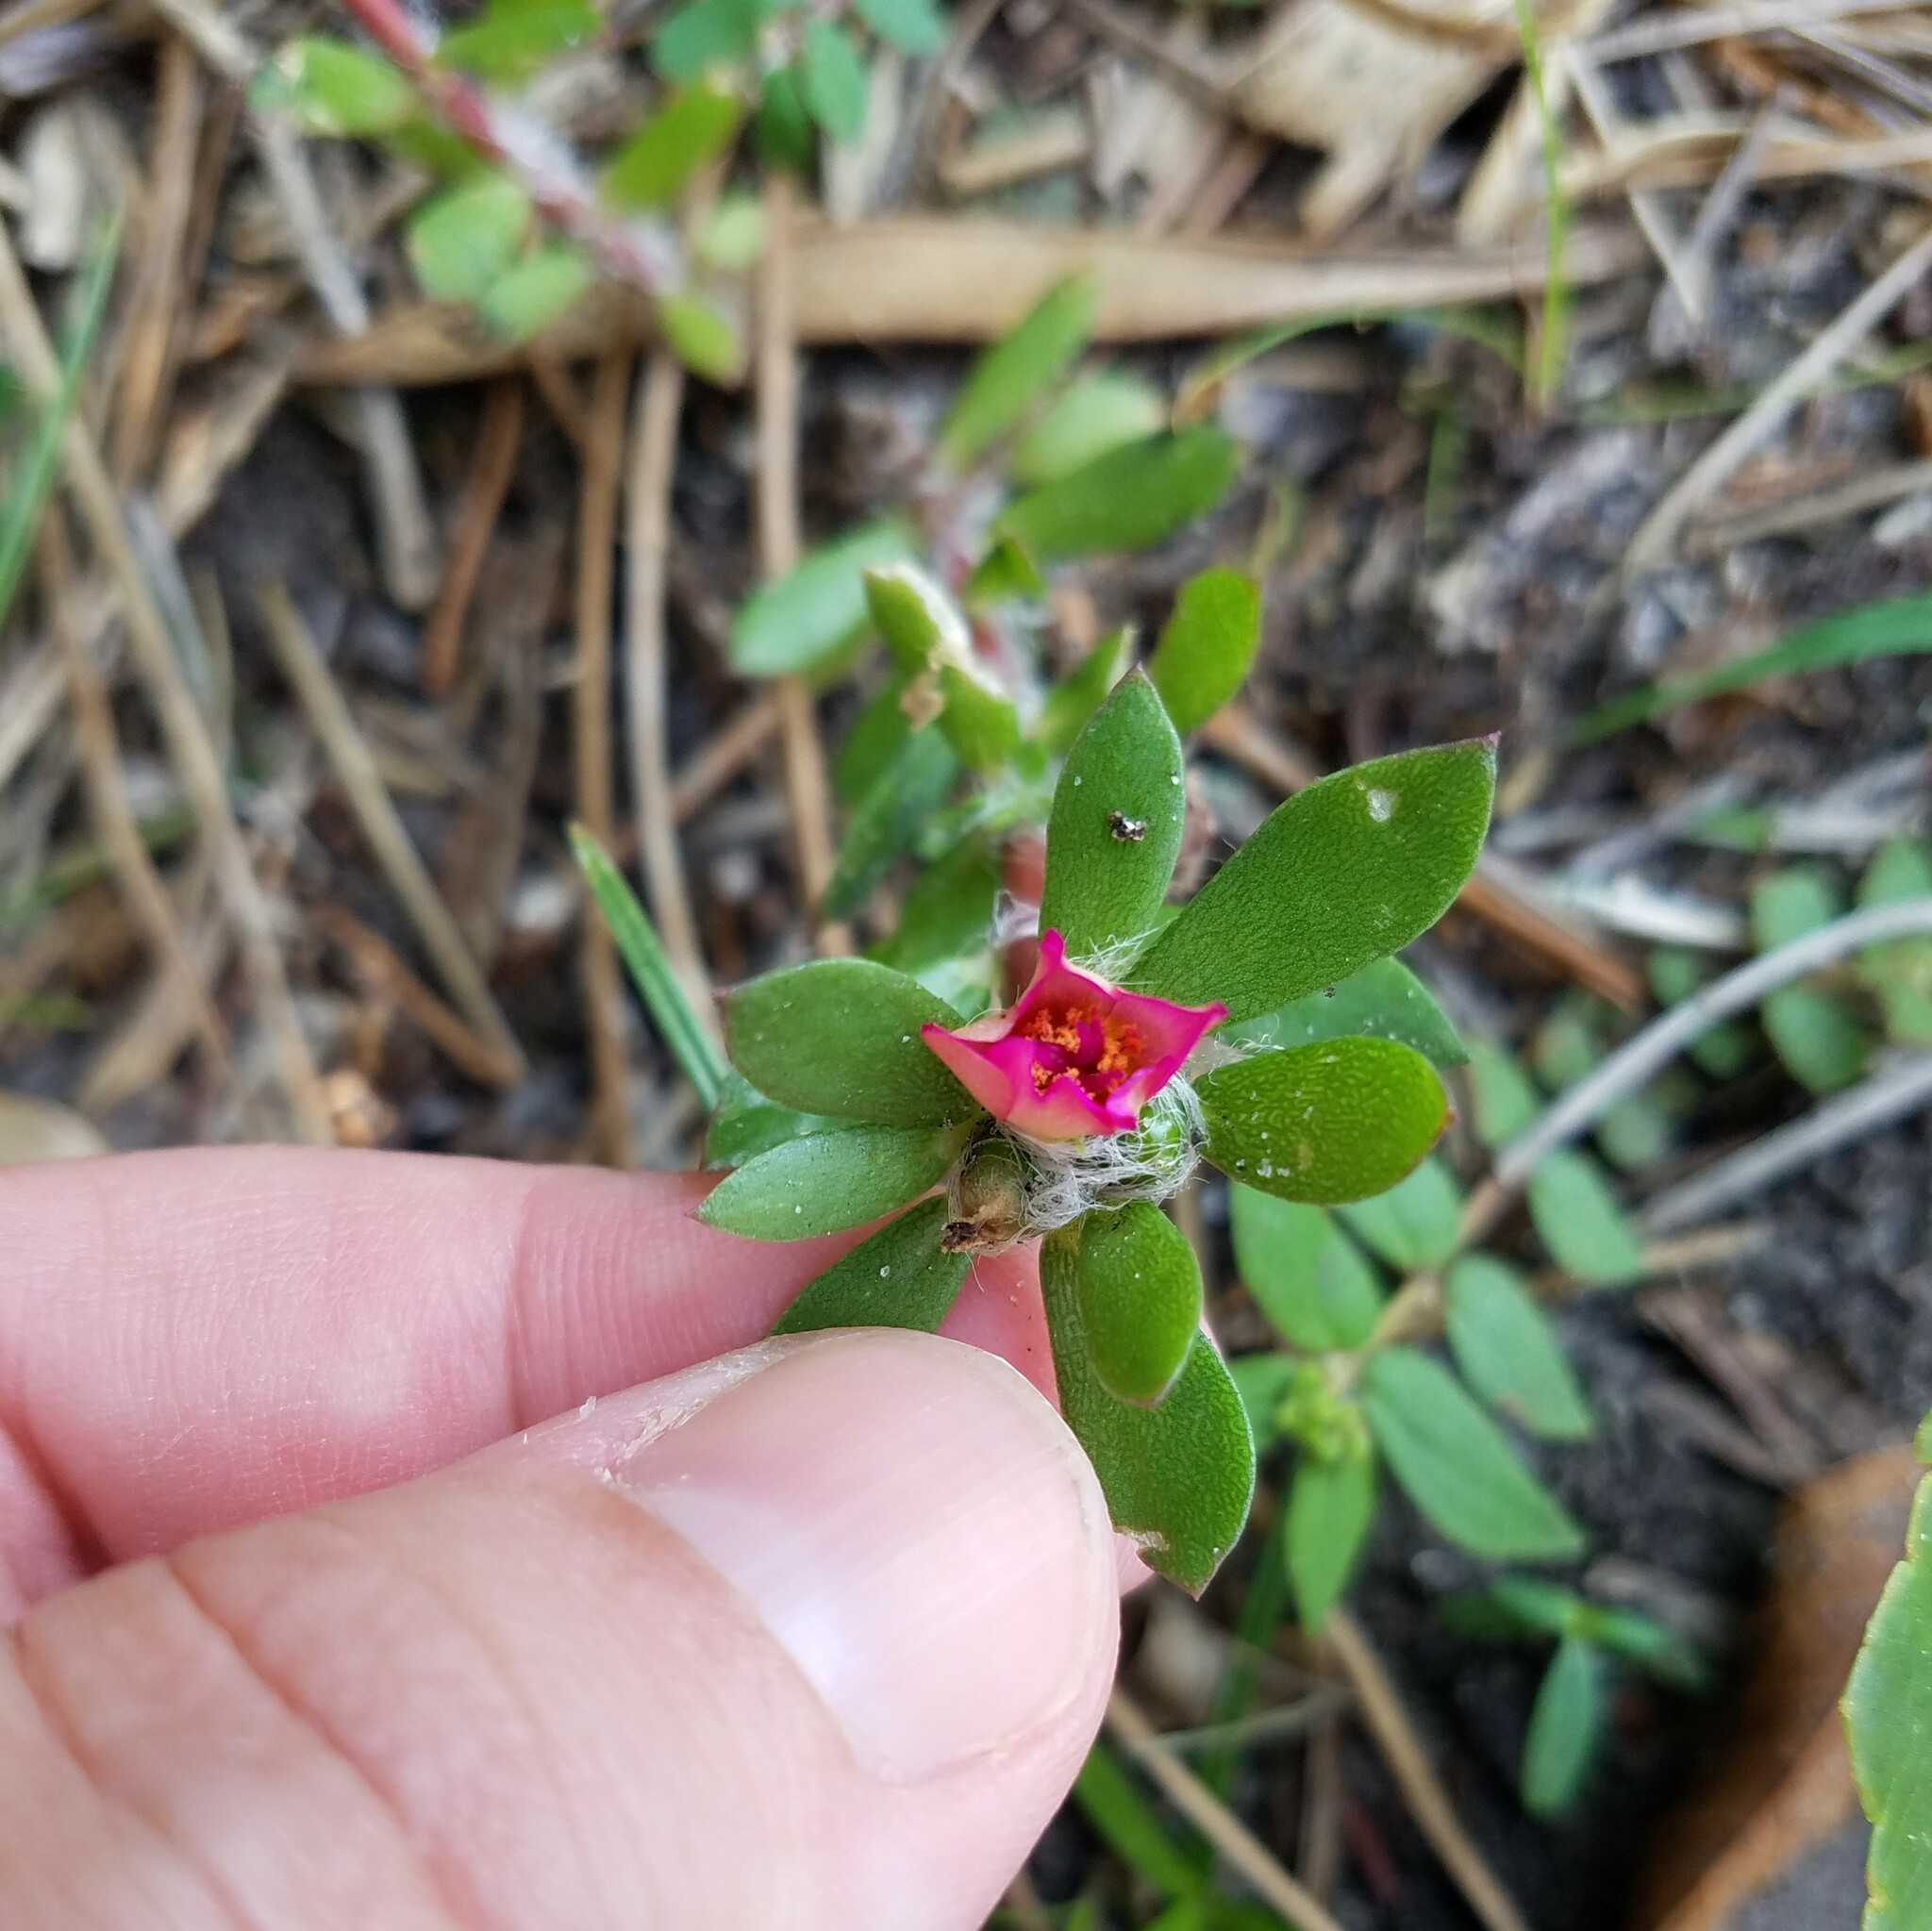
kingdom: Plantae
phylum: Tracheophyta
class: Magnoliopsida
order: Caryophyllales
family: Portulacaceae
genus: Portulaca
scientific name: Portulaca amilis
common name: Paraguayan purslane
